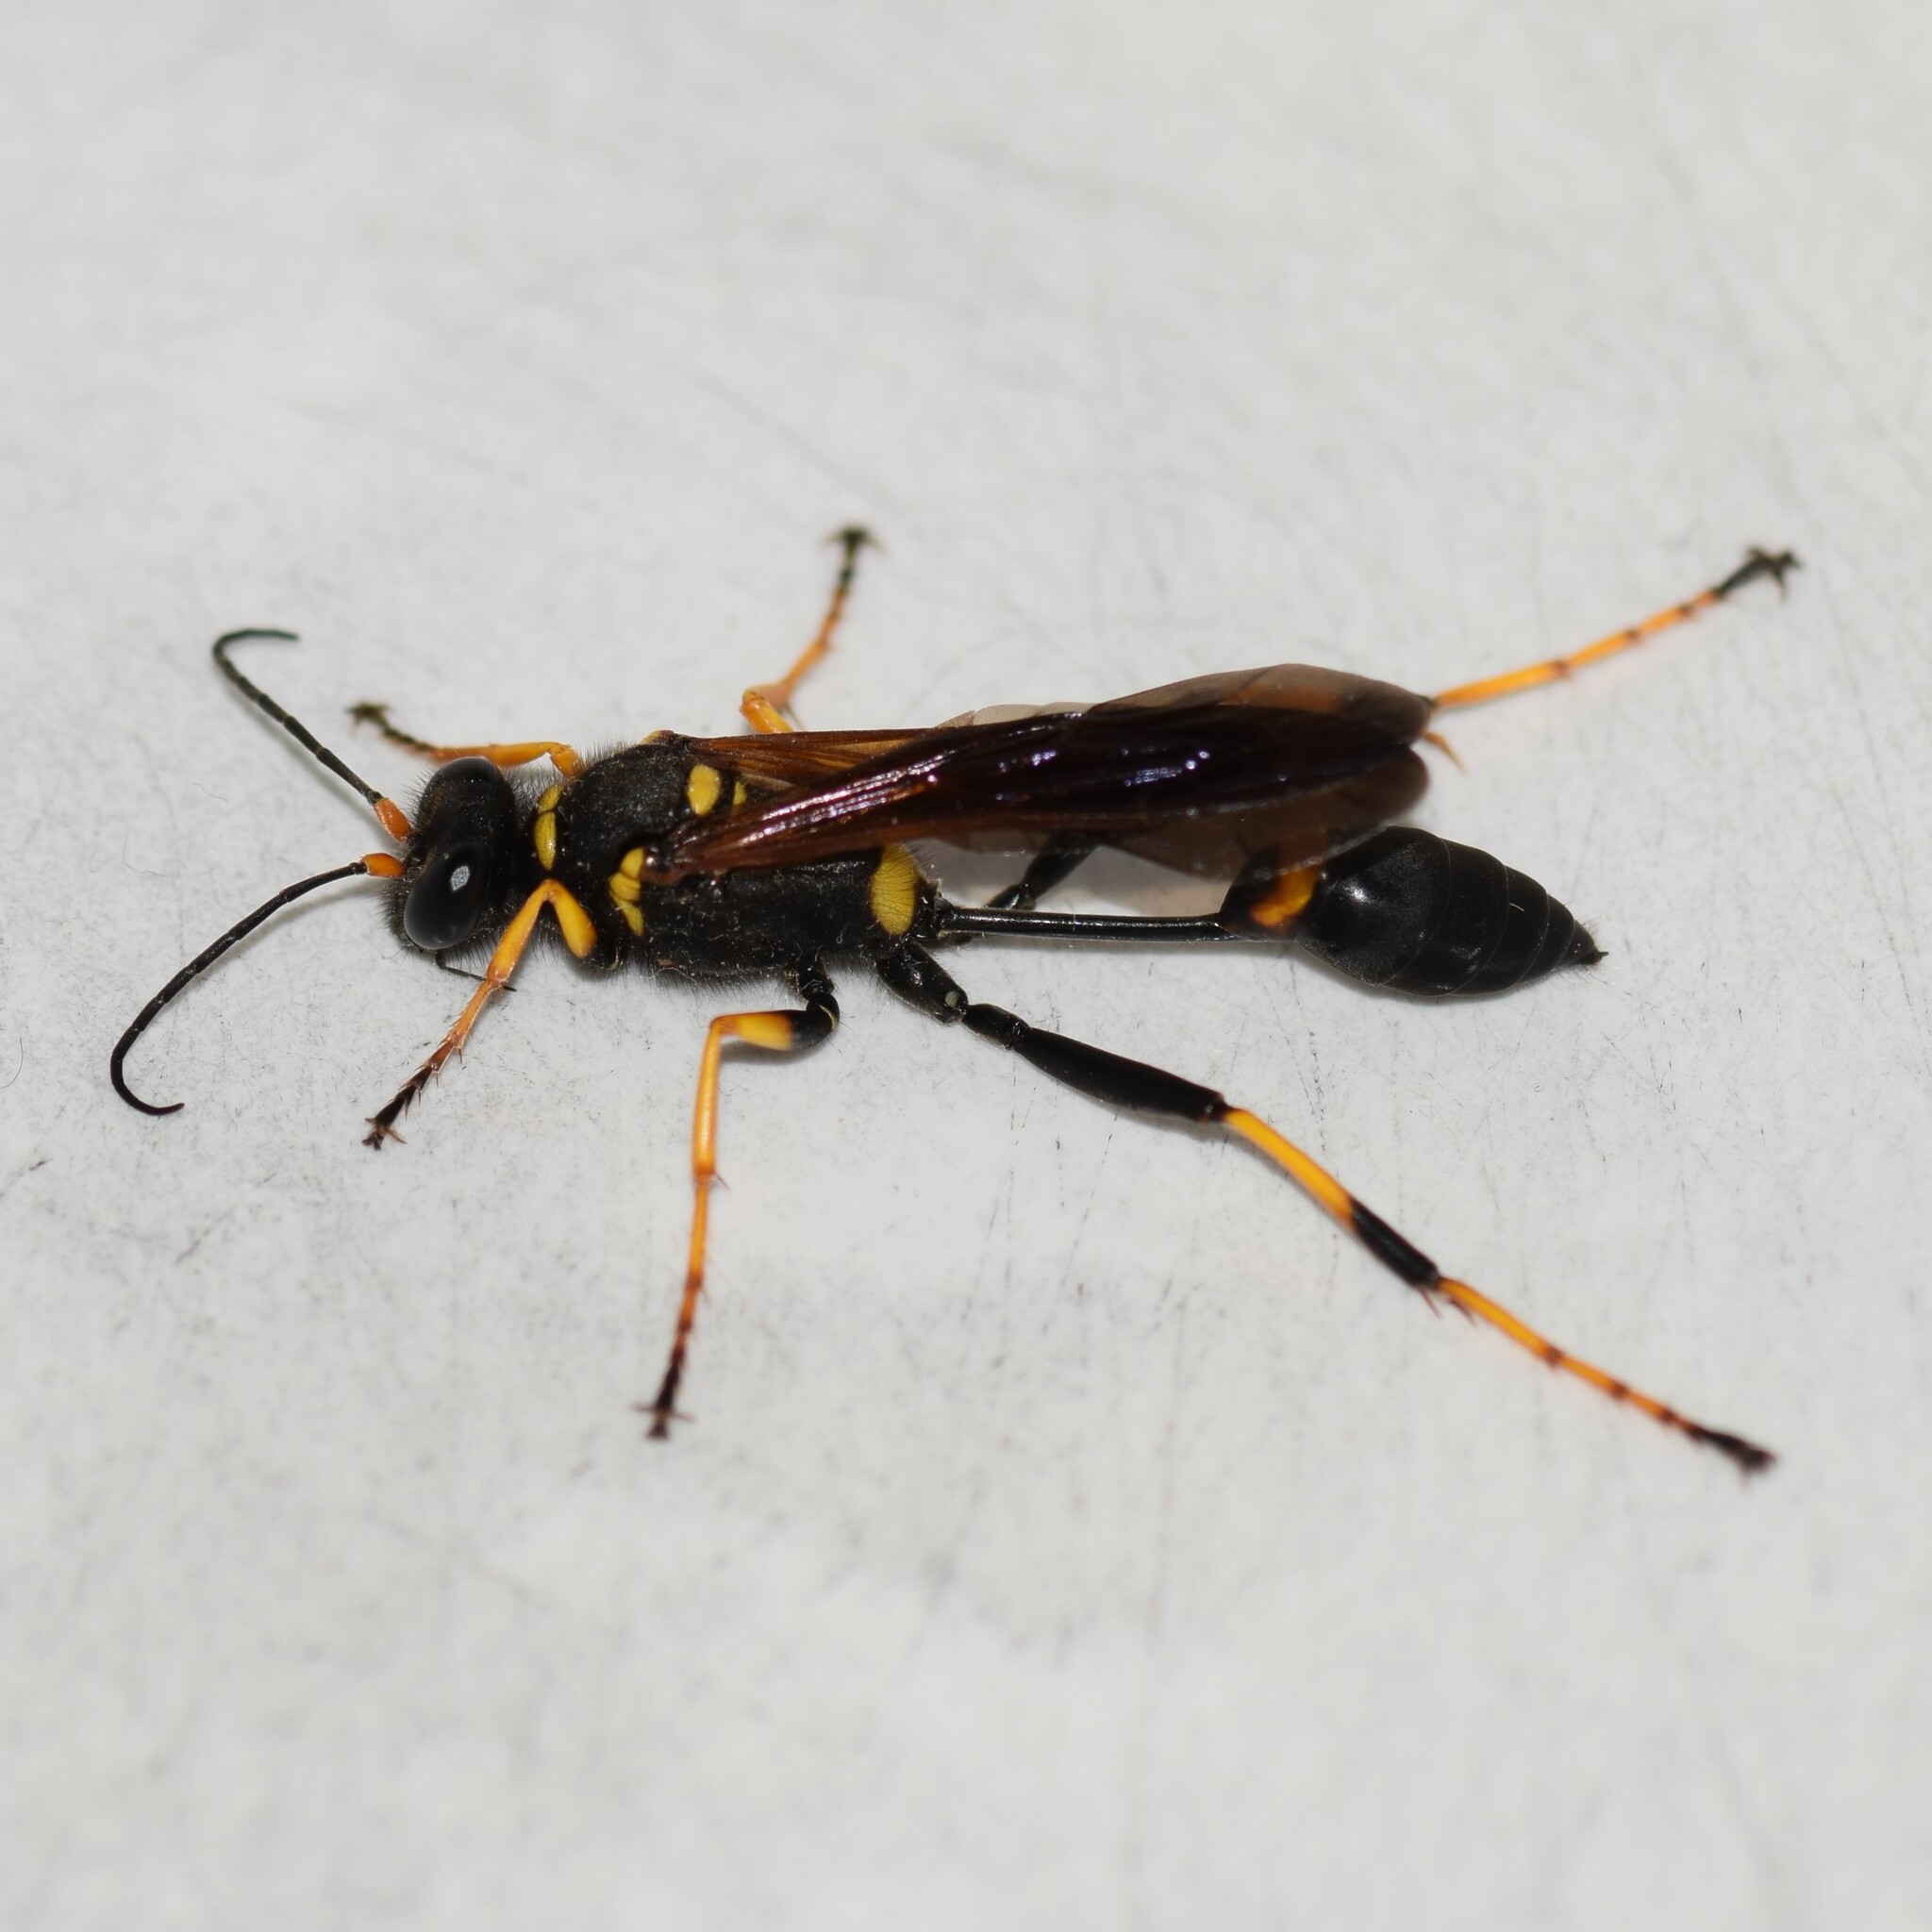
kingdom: Animalia
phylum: Arthropoda
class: Insecta
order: Hymenoptera
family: Sphecidae
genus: Sceliphron
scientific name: Sceliphron caementarium
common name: Mud dauber
